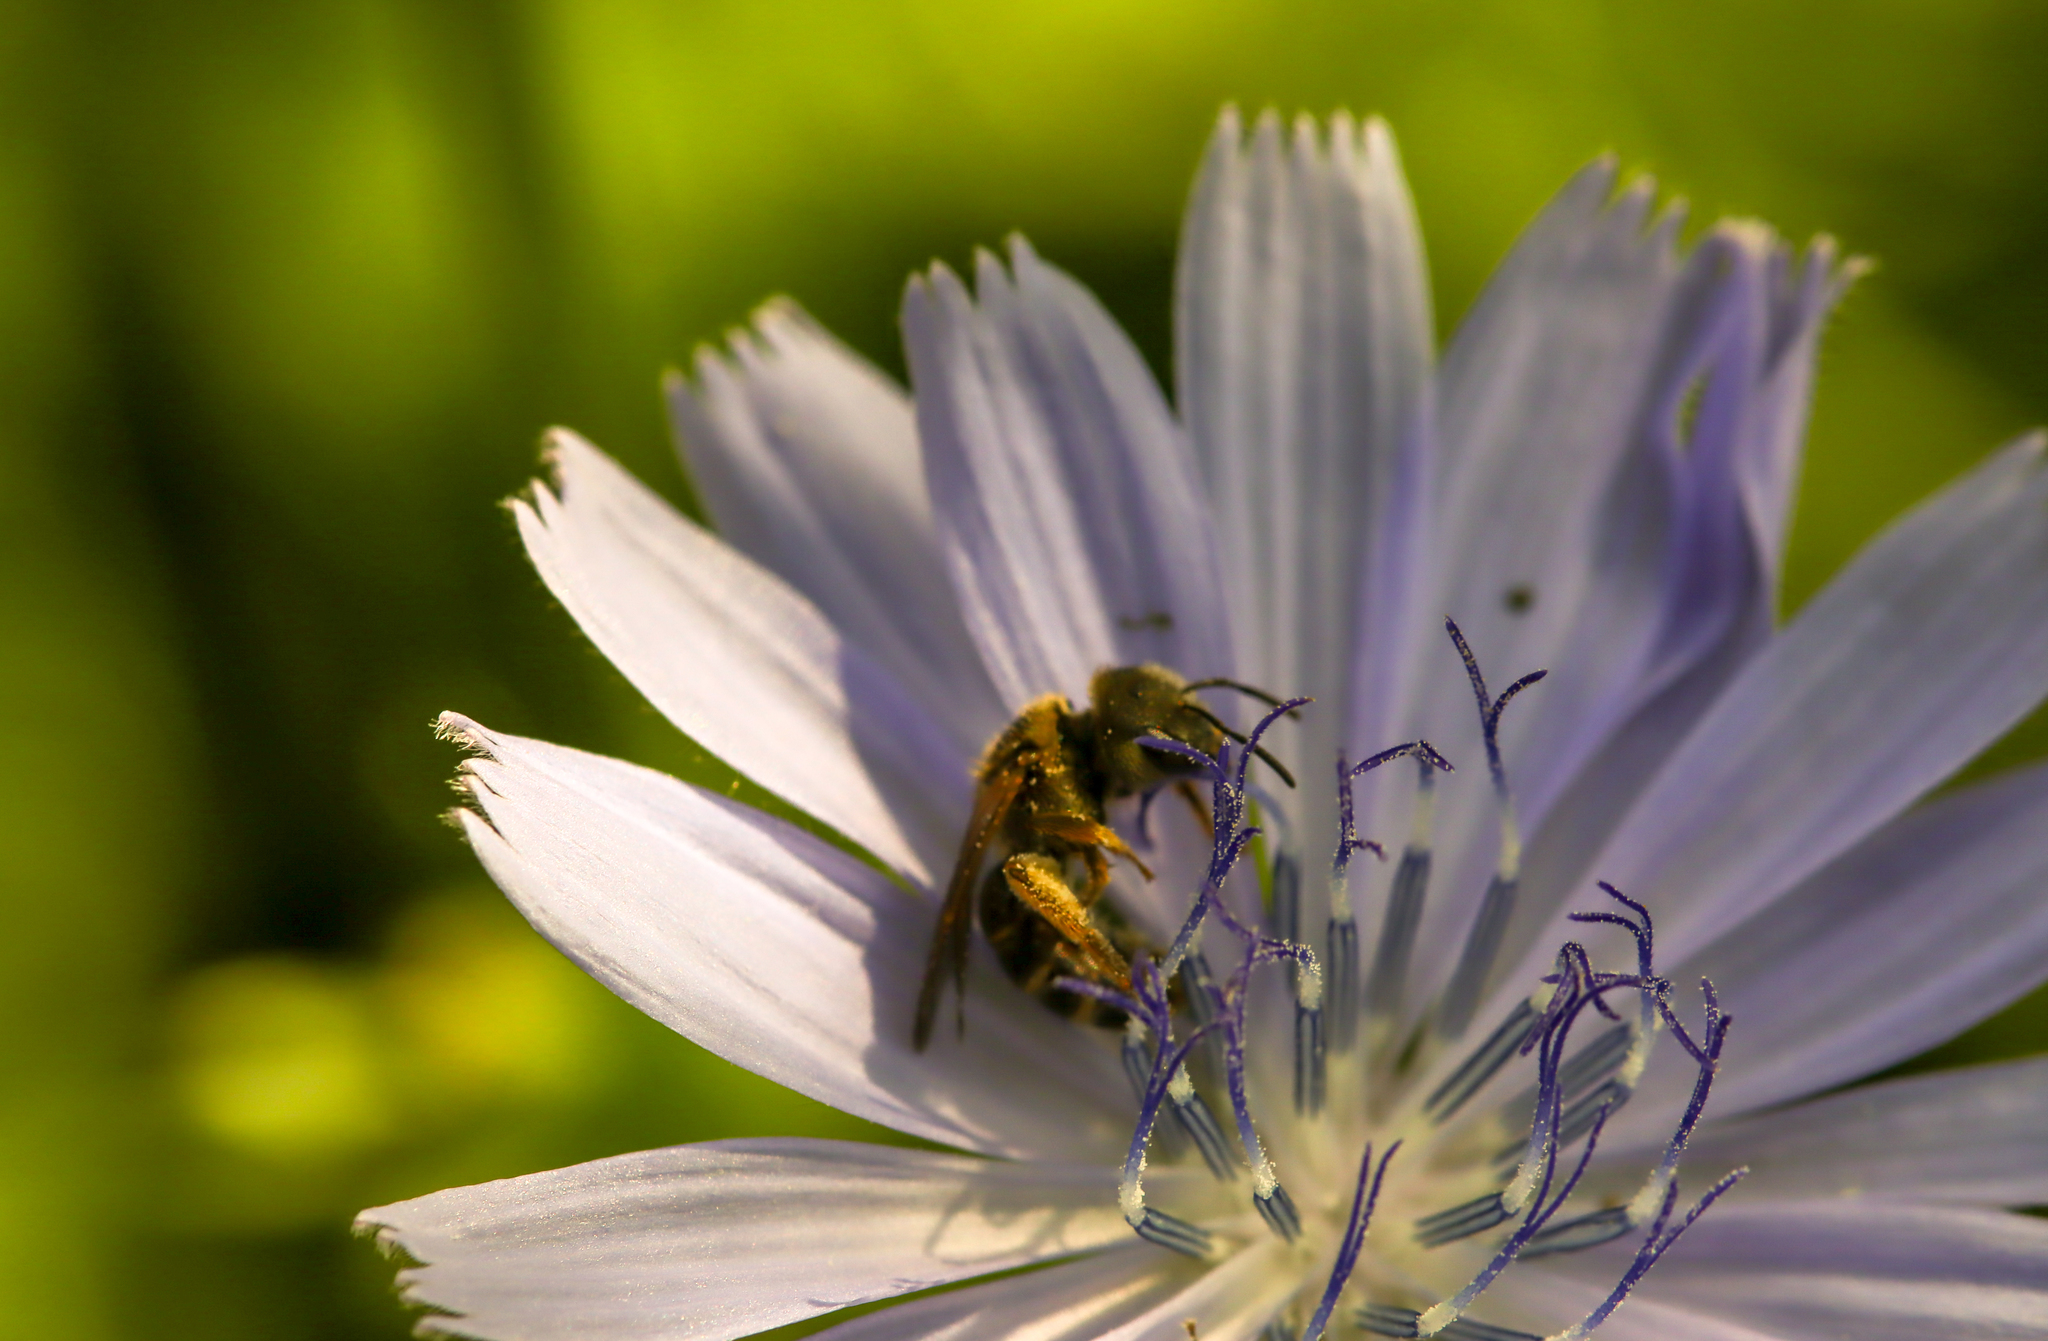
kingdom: Animalia
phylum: Arthropoda
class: Insecta
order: Hymenoptera
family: Halictidae
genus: Halictus
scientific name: Halictus ligatus
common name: Ligated furrow bee
